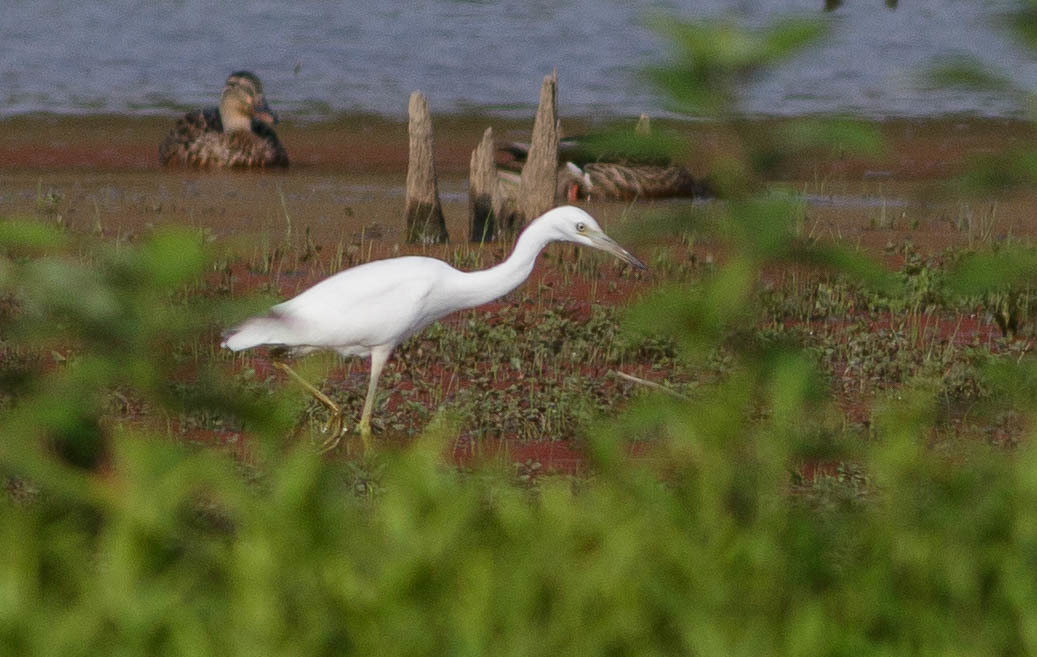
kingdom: Animalia
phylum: Chordata
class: Aves
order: Pelecaniformes
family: Ardeidae
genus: Egretta
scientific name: Egretta caerulea
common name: Little blue heron
